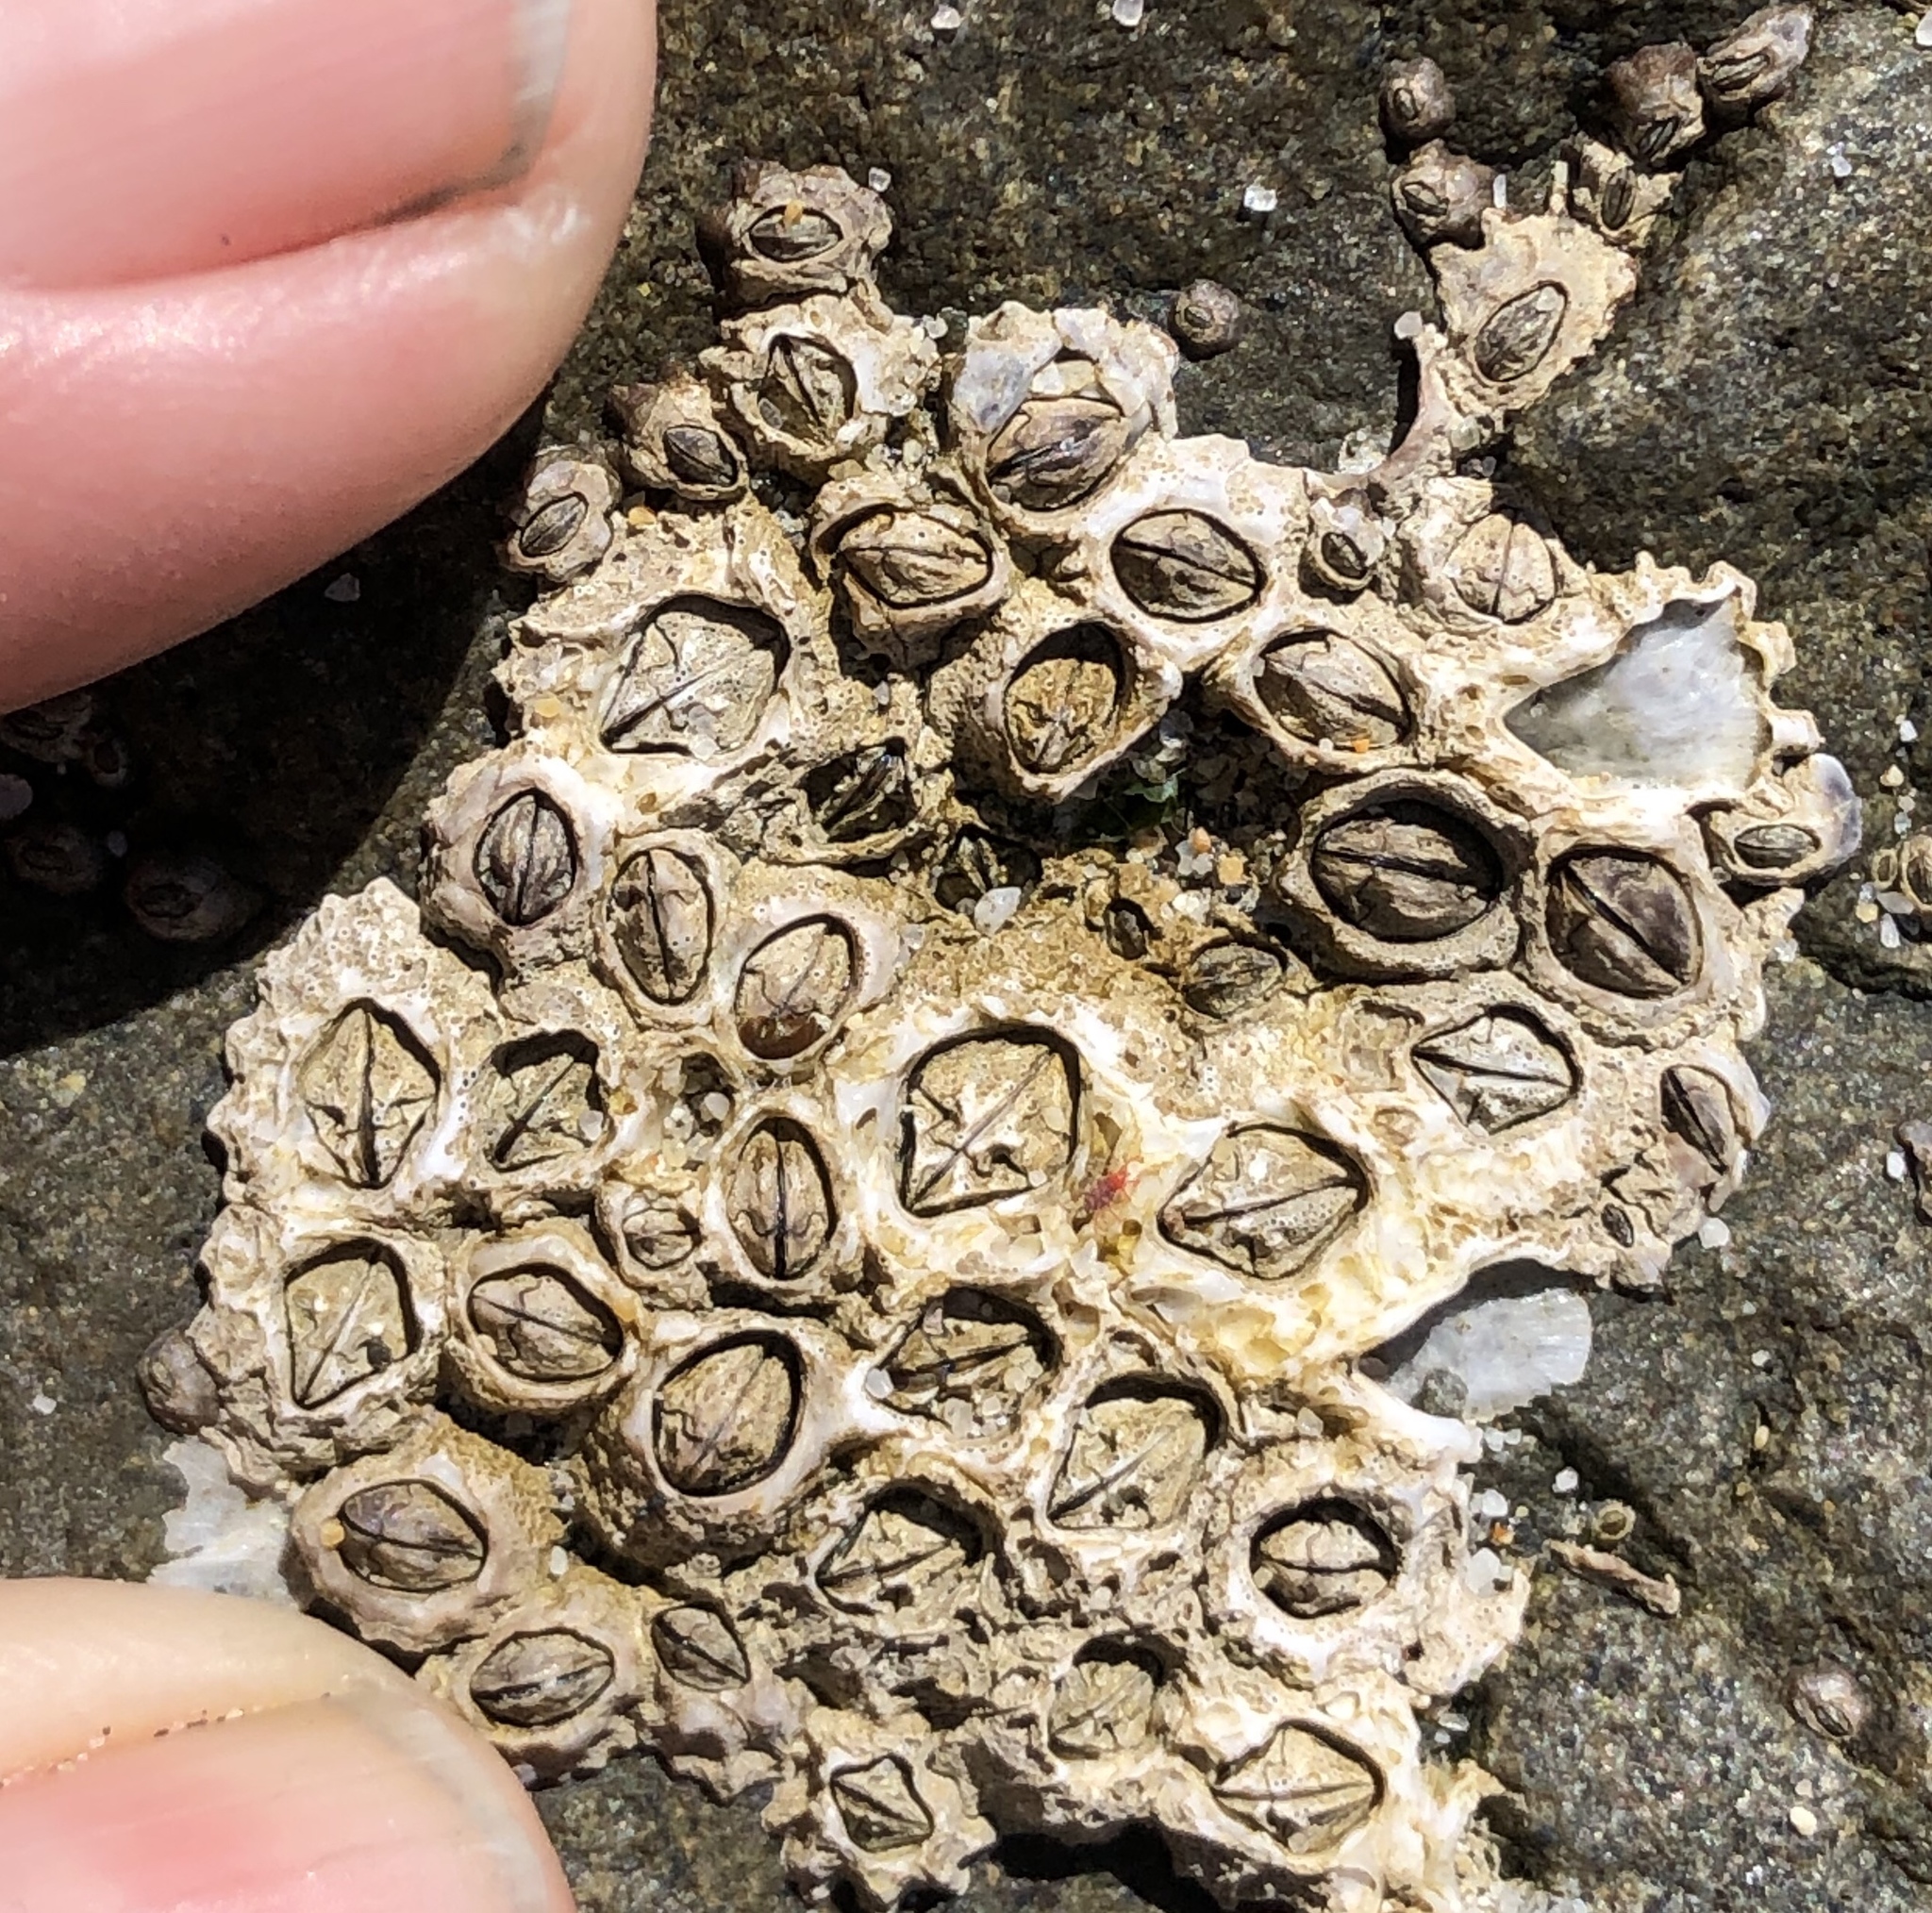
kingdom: Animalia
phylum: Arthropoda
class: Maxillopoda
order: Sessilia
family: Balanidae
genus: Balanus
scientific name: Balanus glandula
